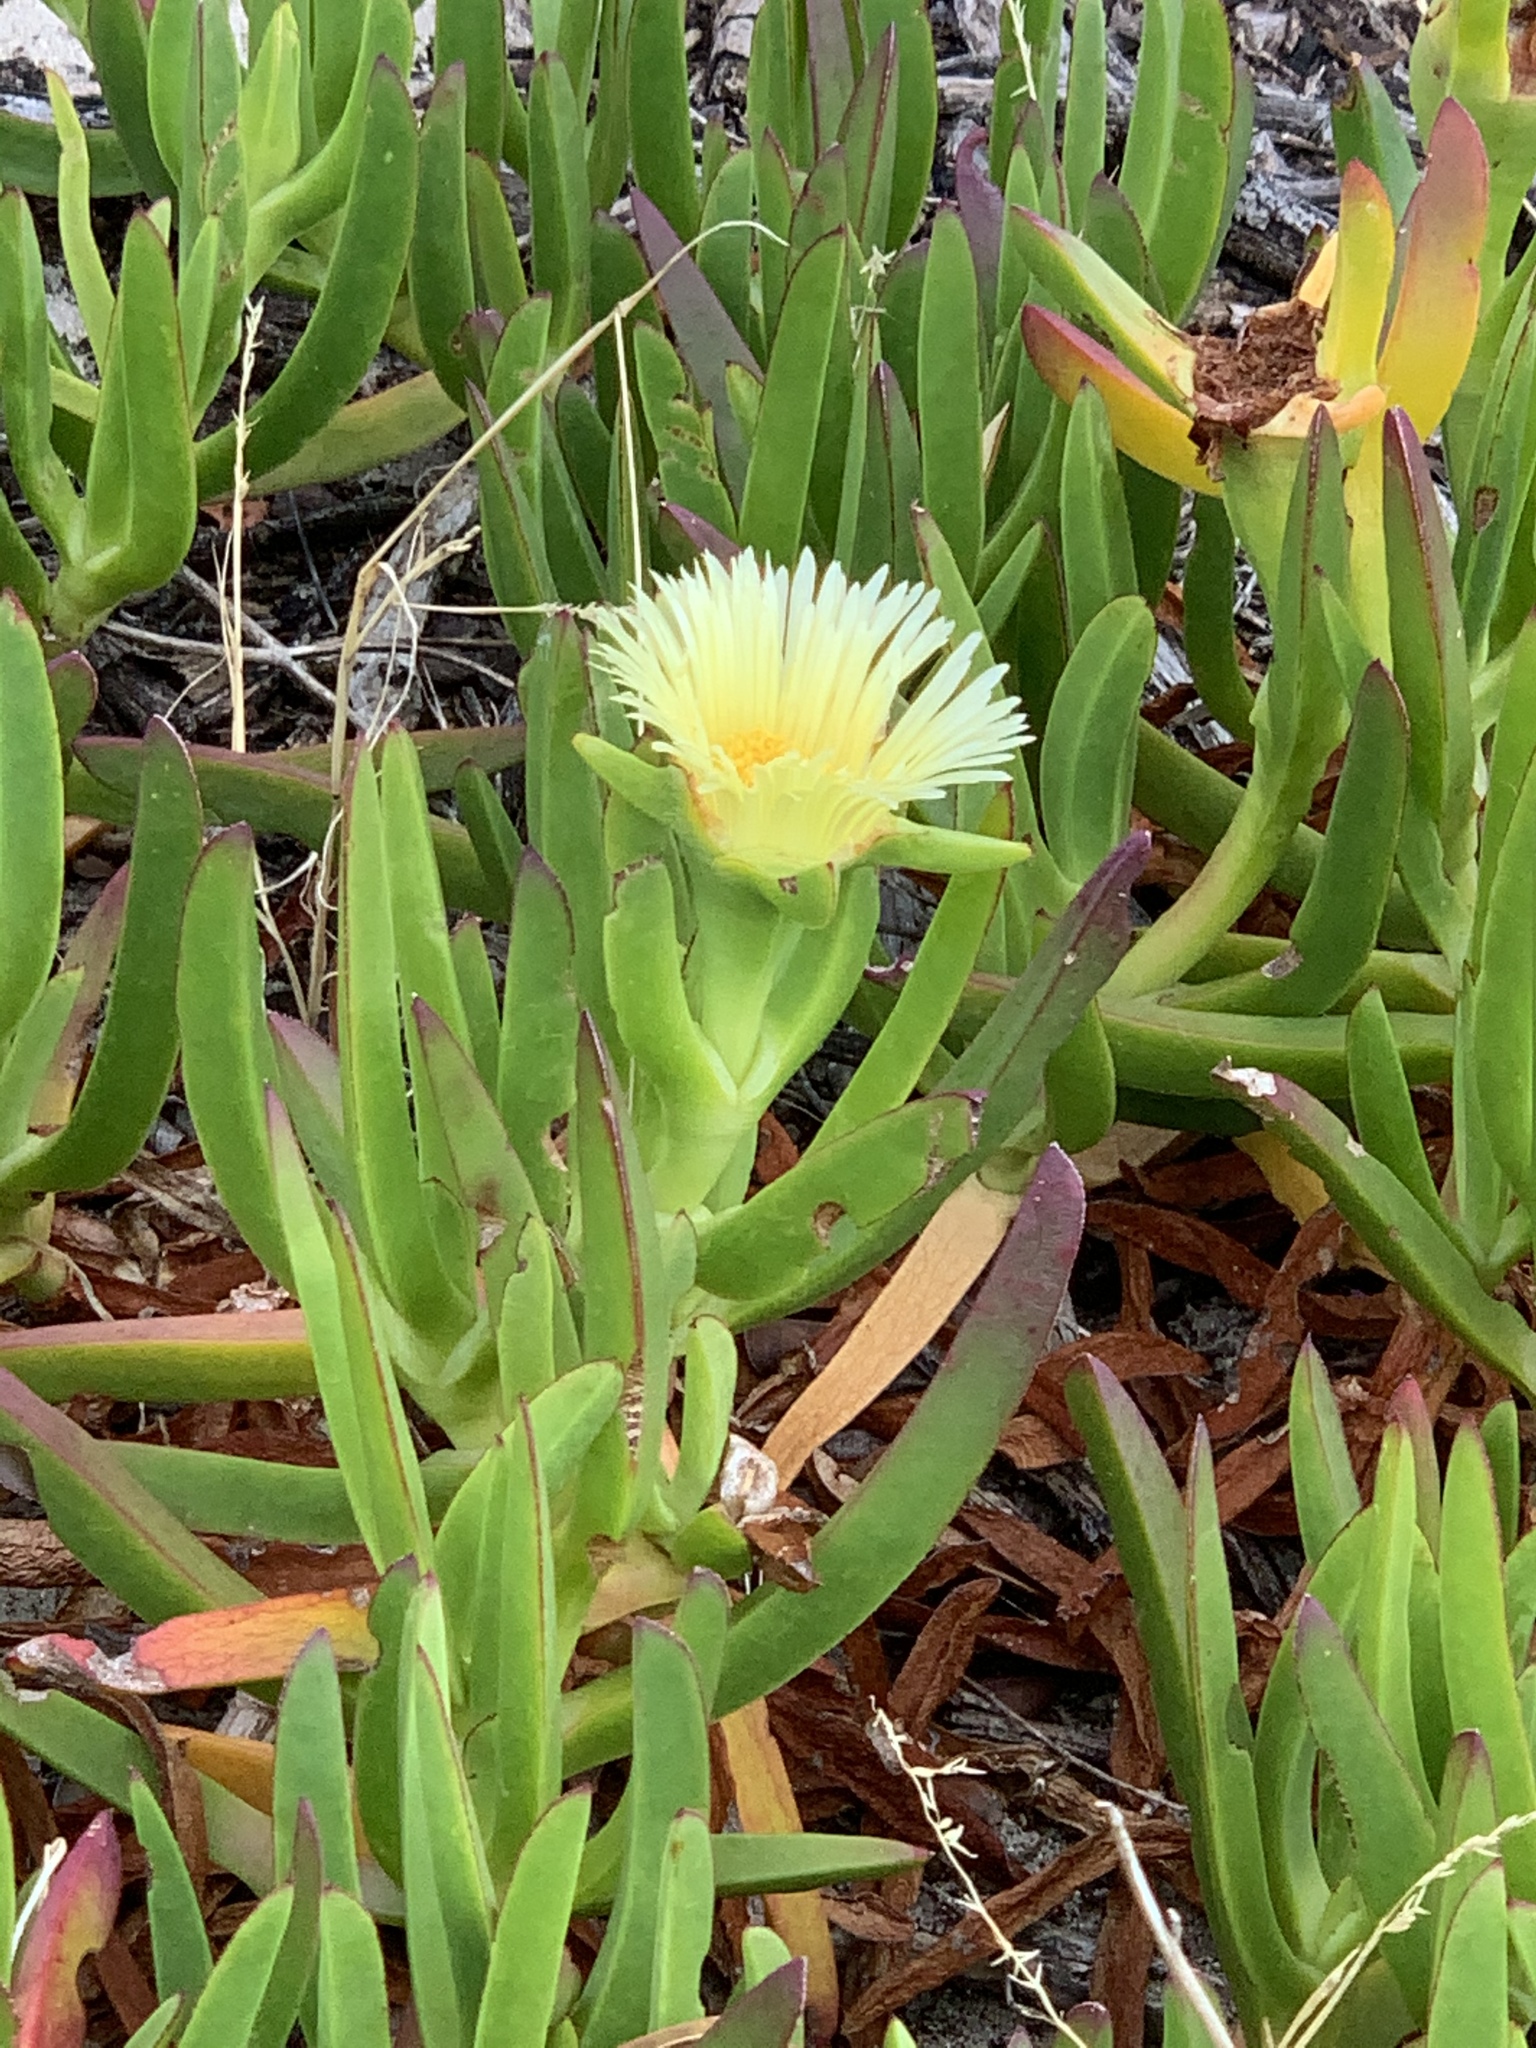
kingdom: Plantae
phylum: Tracheophyta
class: Magnoliopsida
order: Caryophyllales
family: Aizoaceae
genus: Carpobrotus
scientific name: Carpobrotus edulis
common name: Hottentot-fig
